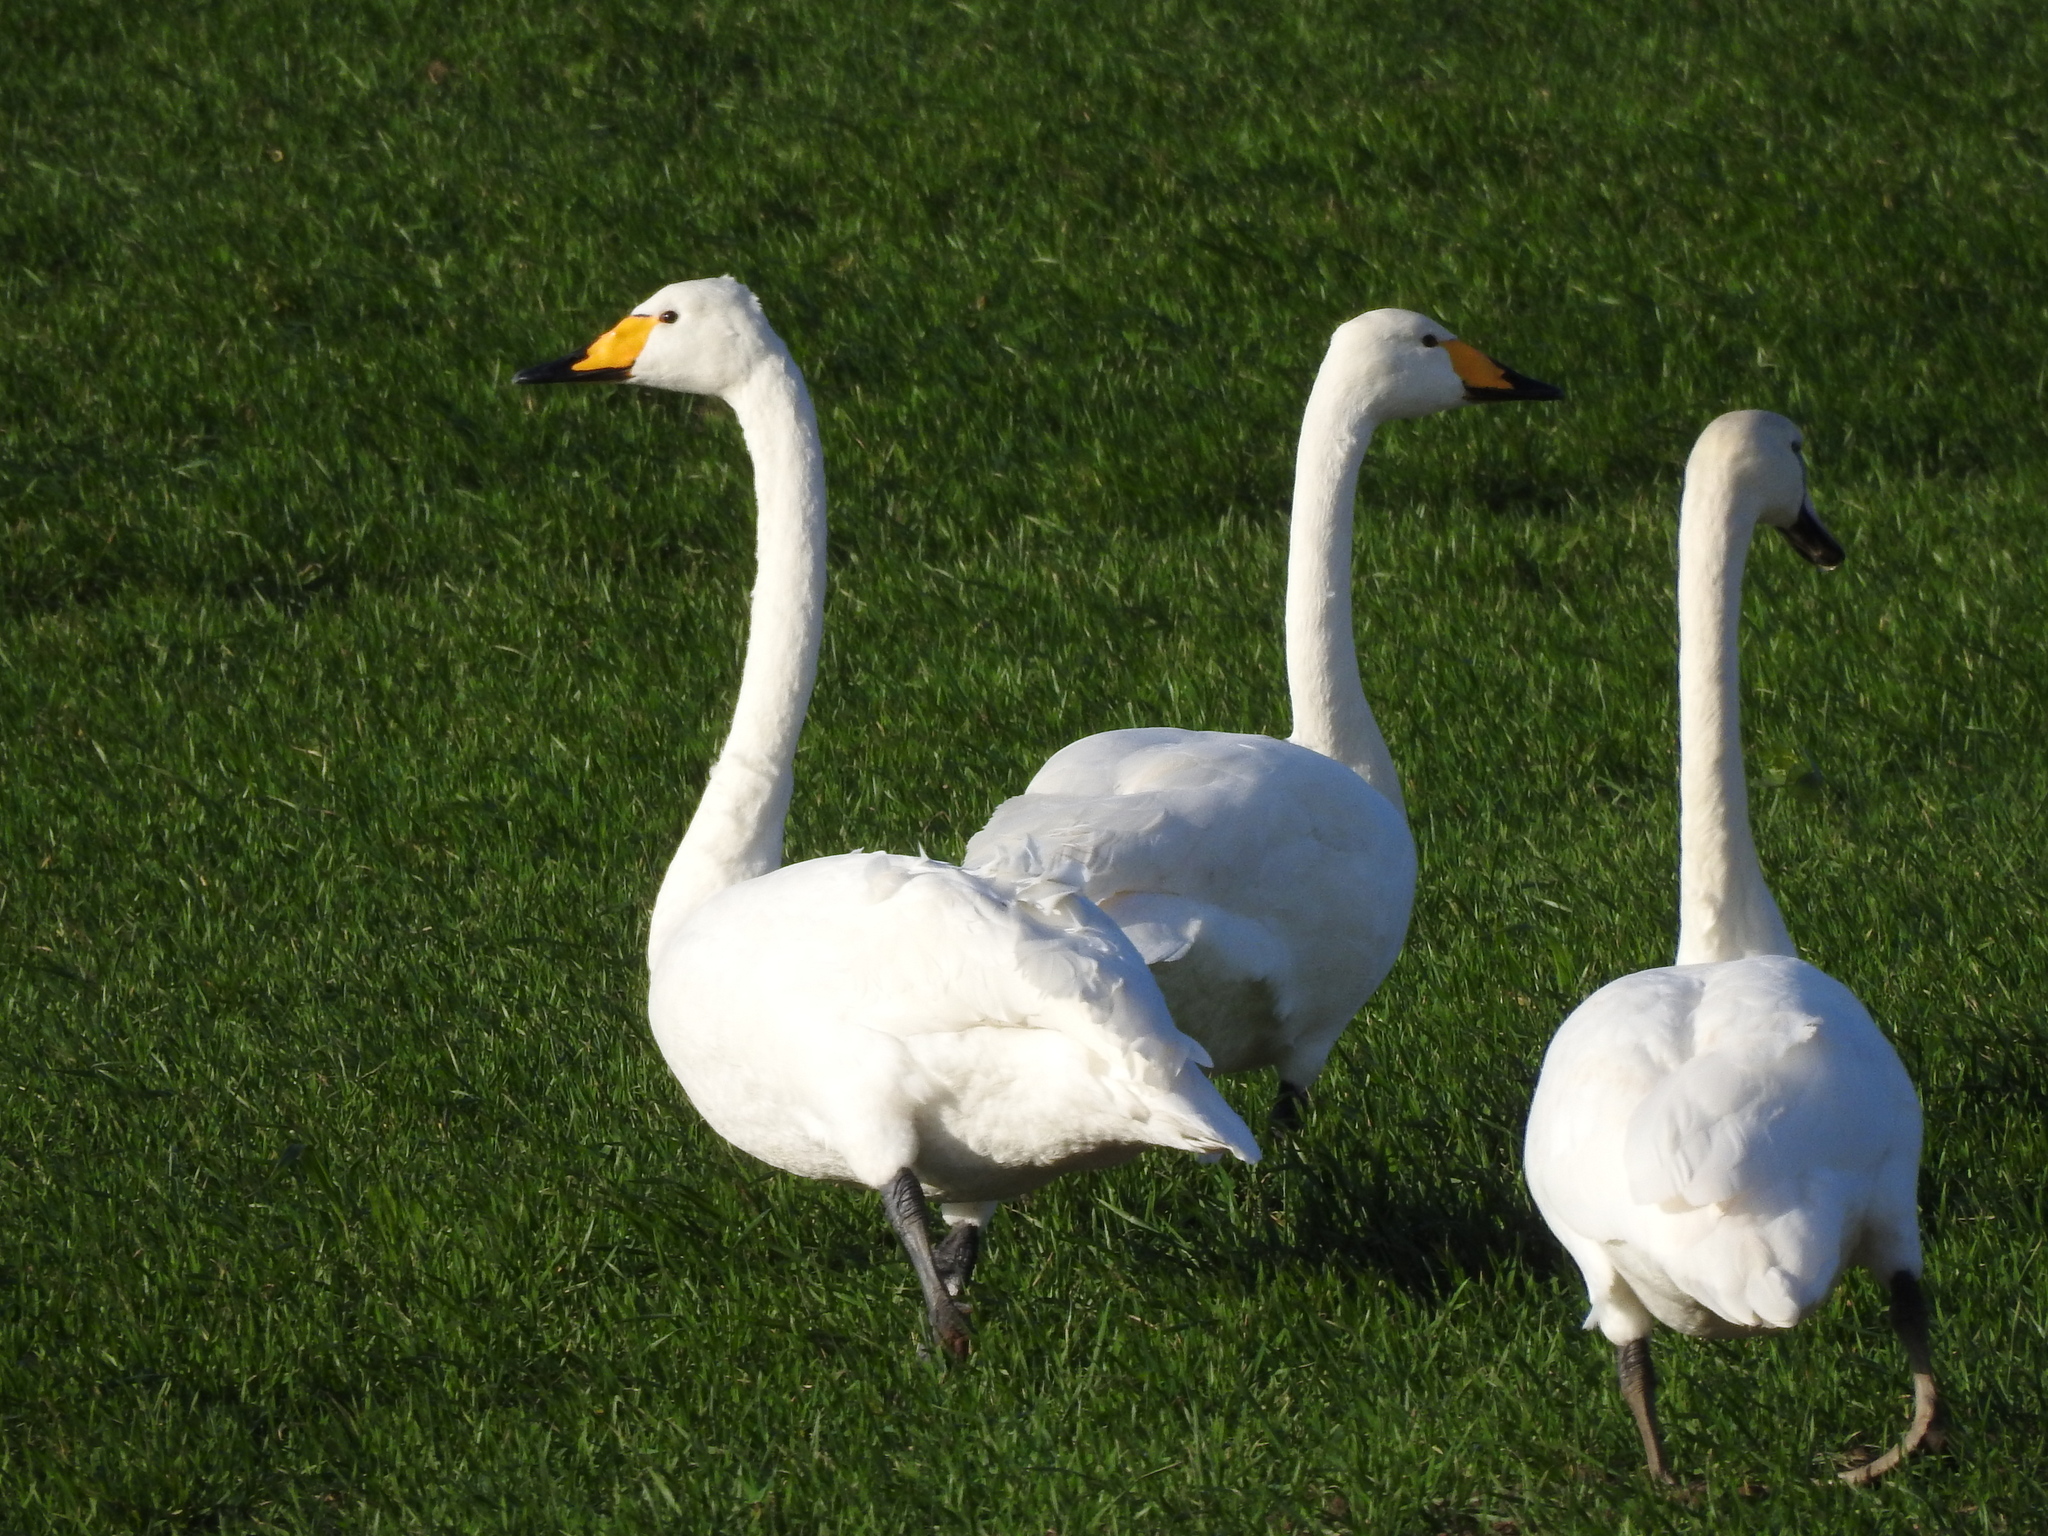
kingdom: Animalia
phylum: Chordata
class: Aves
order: Anseriformes
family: Anatidae
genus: Cygnus
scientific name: Cygnus cygnus
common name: Whooper swan
